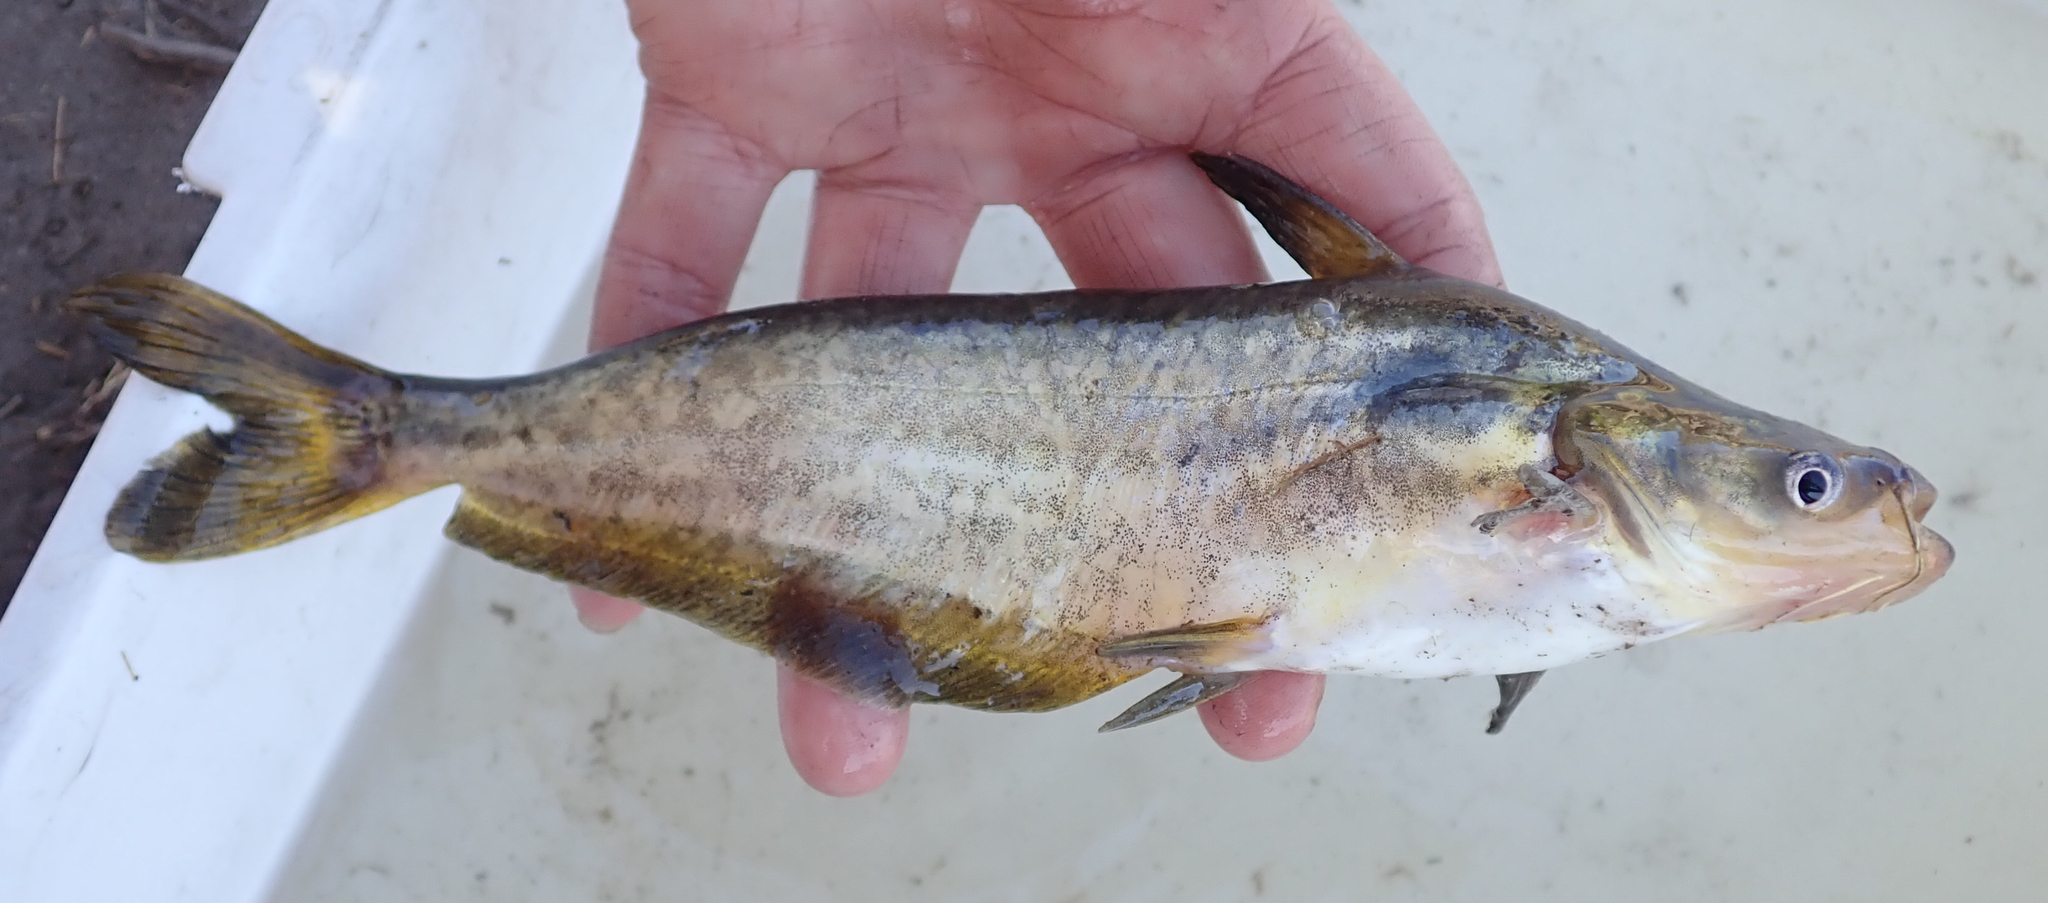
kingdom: Animalia
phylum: Chordata
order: Siluriformes
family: Schilbeidae
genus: Schilbe
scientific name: Schilbe intermedius
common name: Silver catfish
